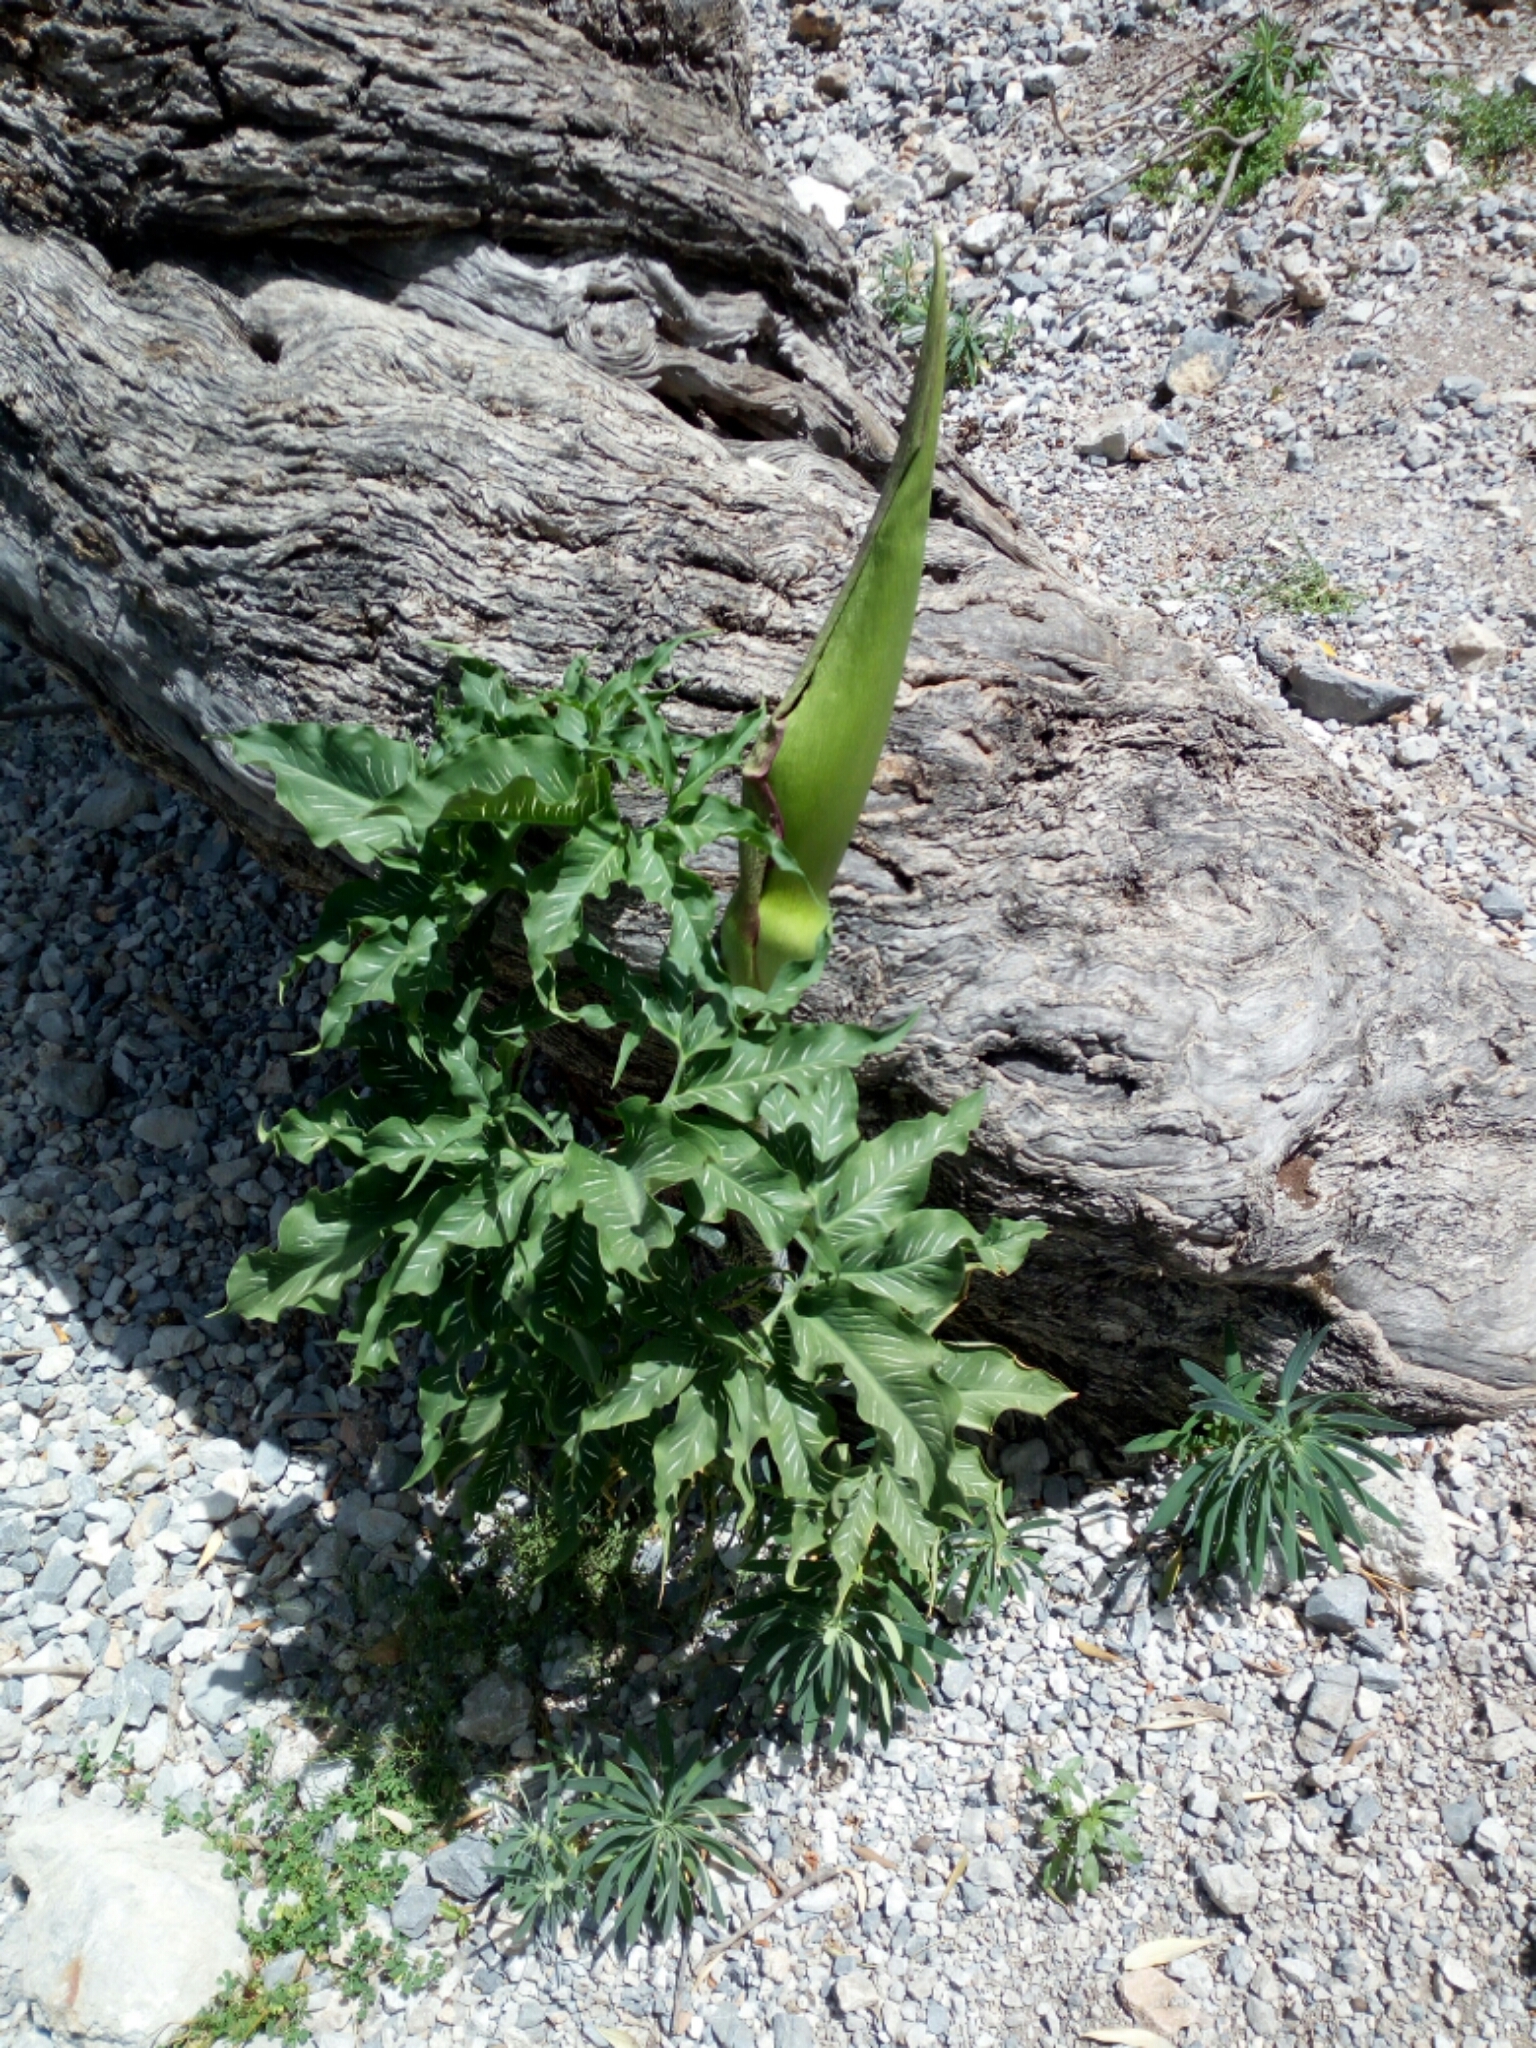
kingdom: Plantae
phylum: Tracheophyta
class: Liliopsida
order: Alismatales
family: Araceae
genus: Dracunculus
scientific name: Dracunculus vulgaris
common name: Dragon arum
